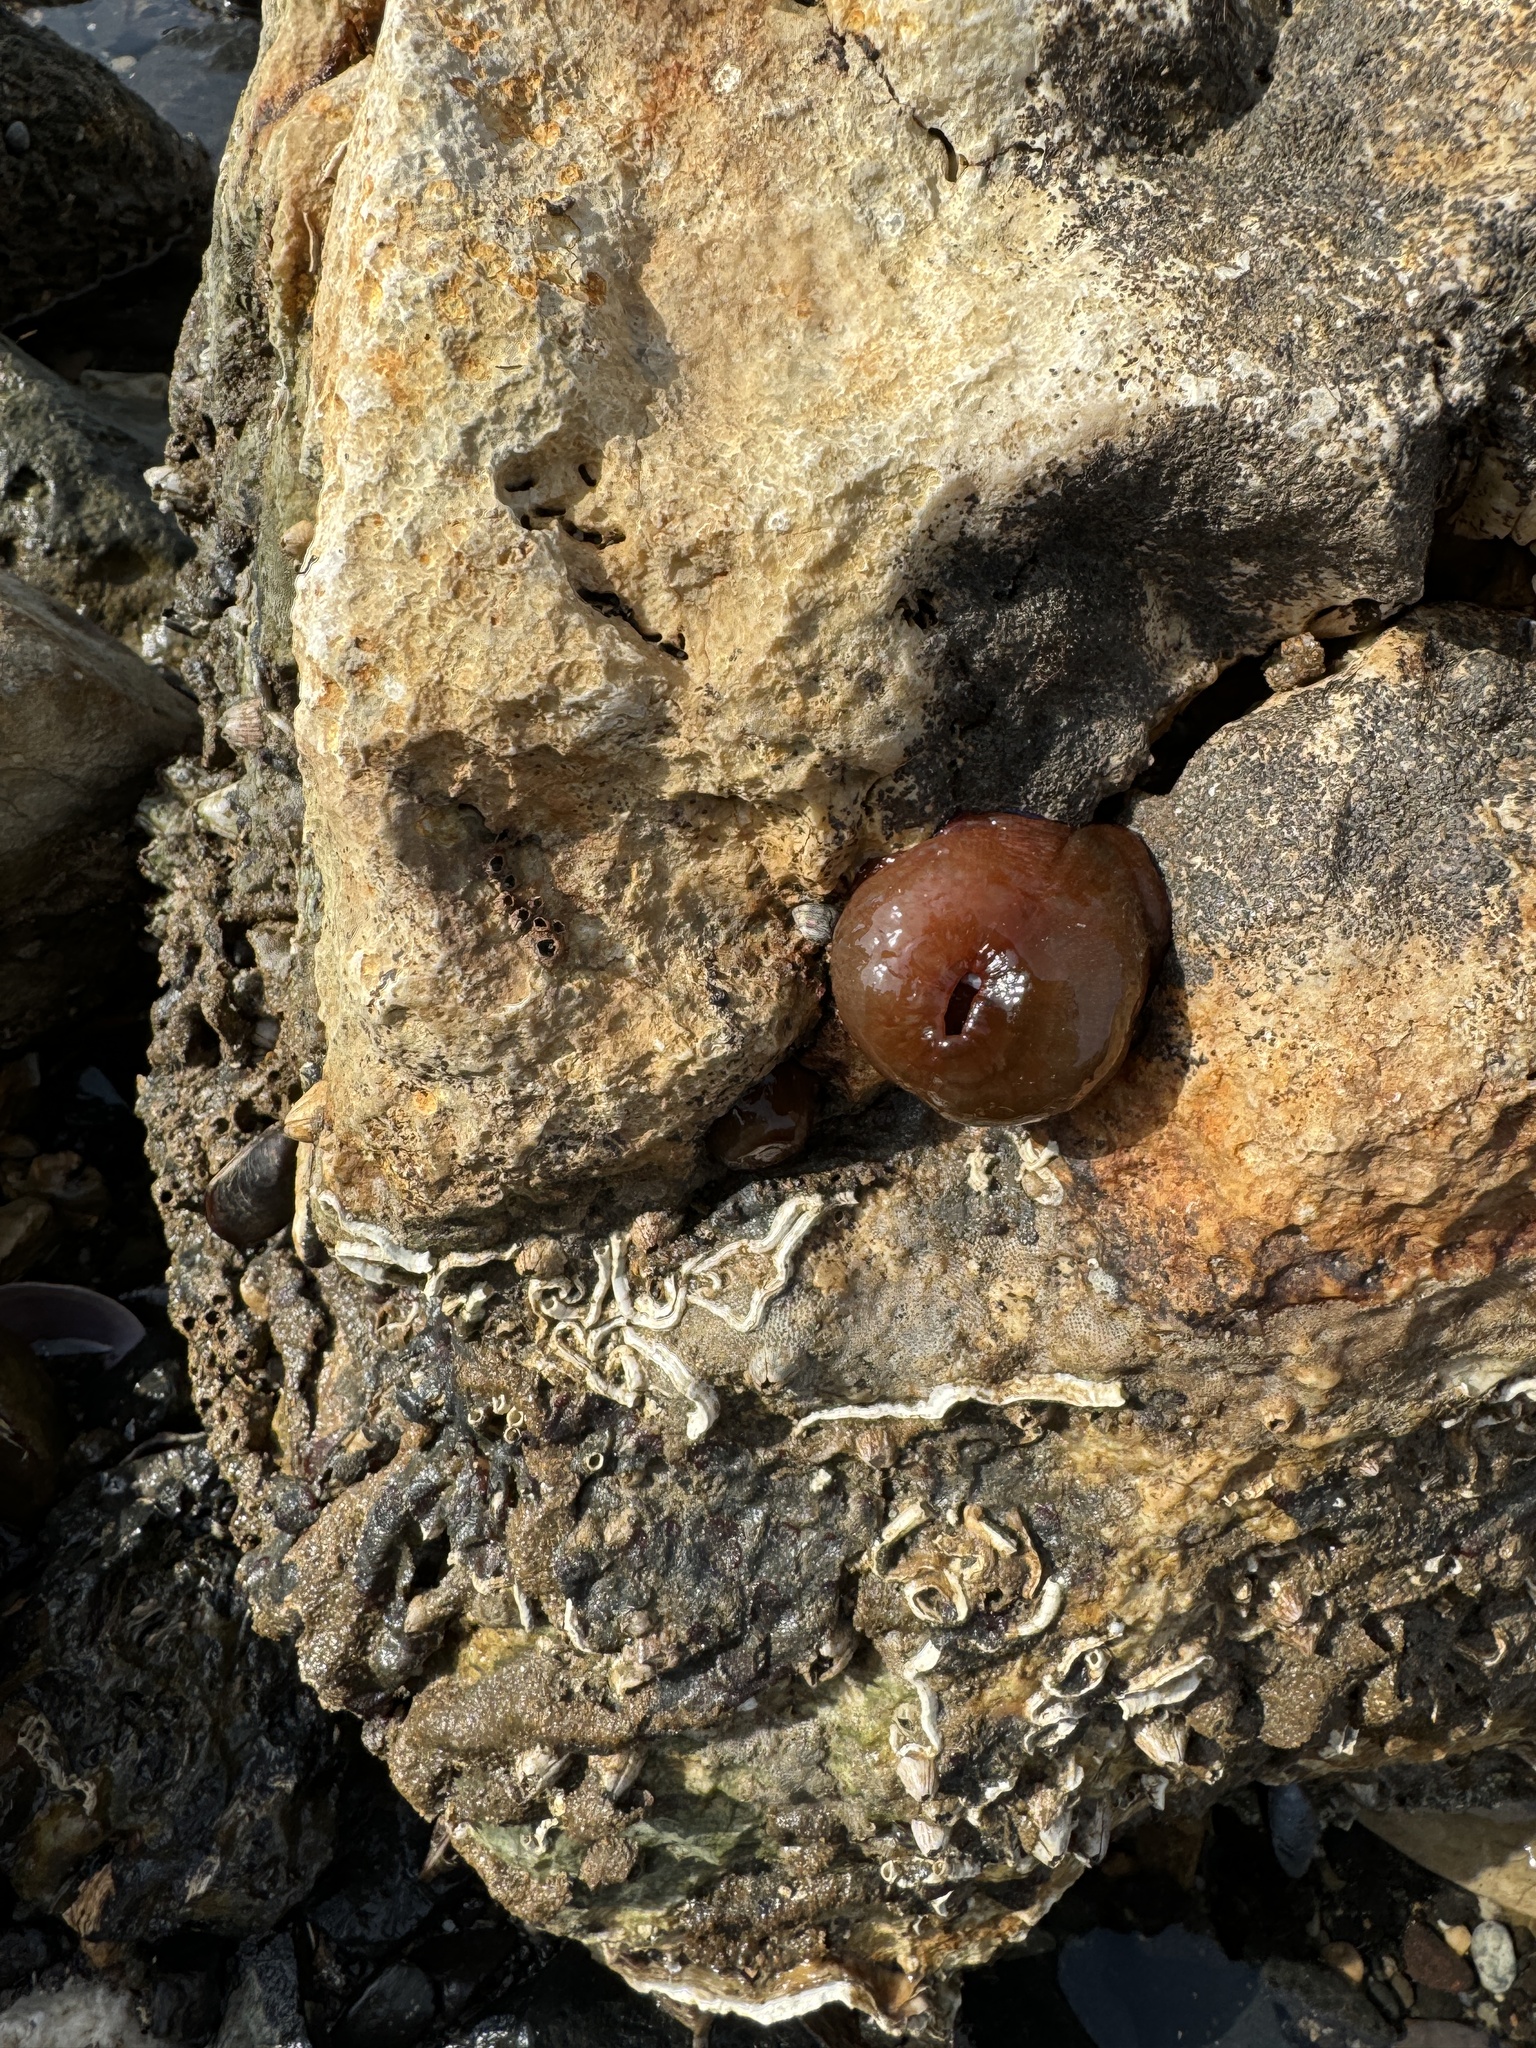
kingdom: Animalia
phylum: Cnidaria
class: Anthozoa
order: Actiniaria
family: Actiniidae
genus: Actinia
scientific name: Actinia equina
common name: Beadlet anemone
